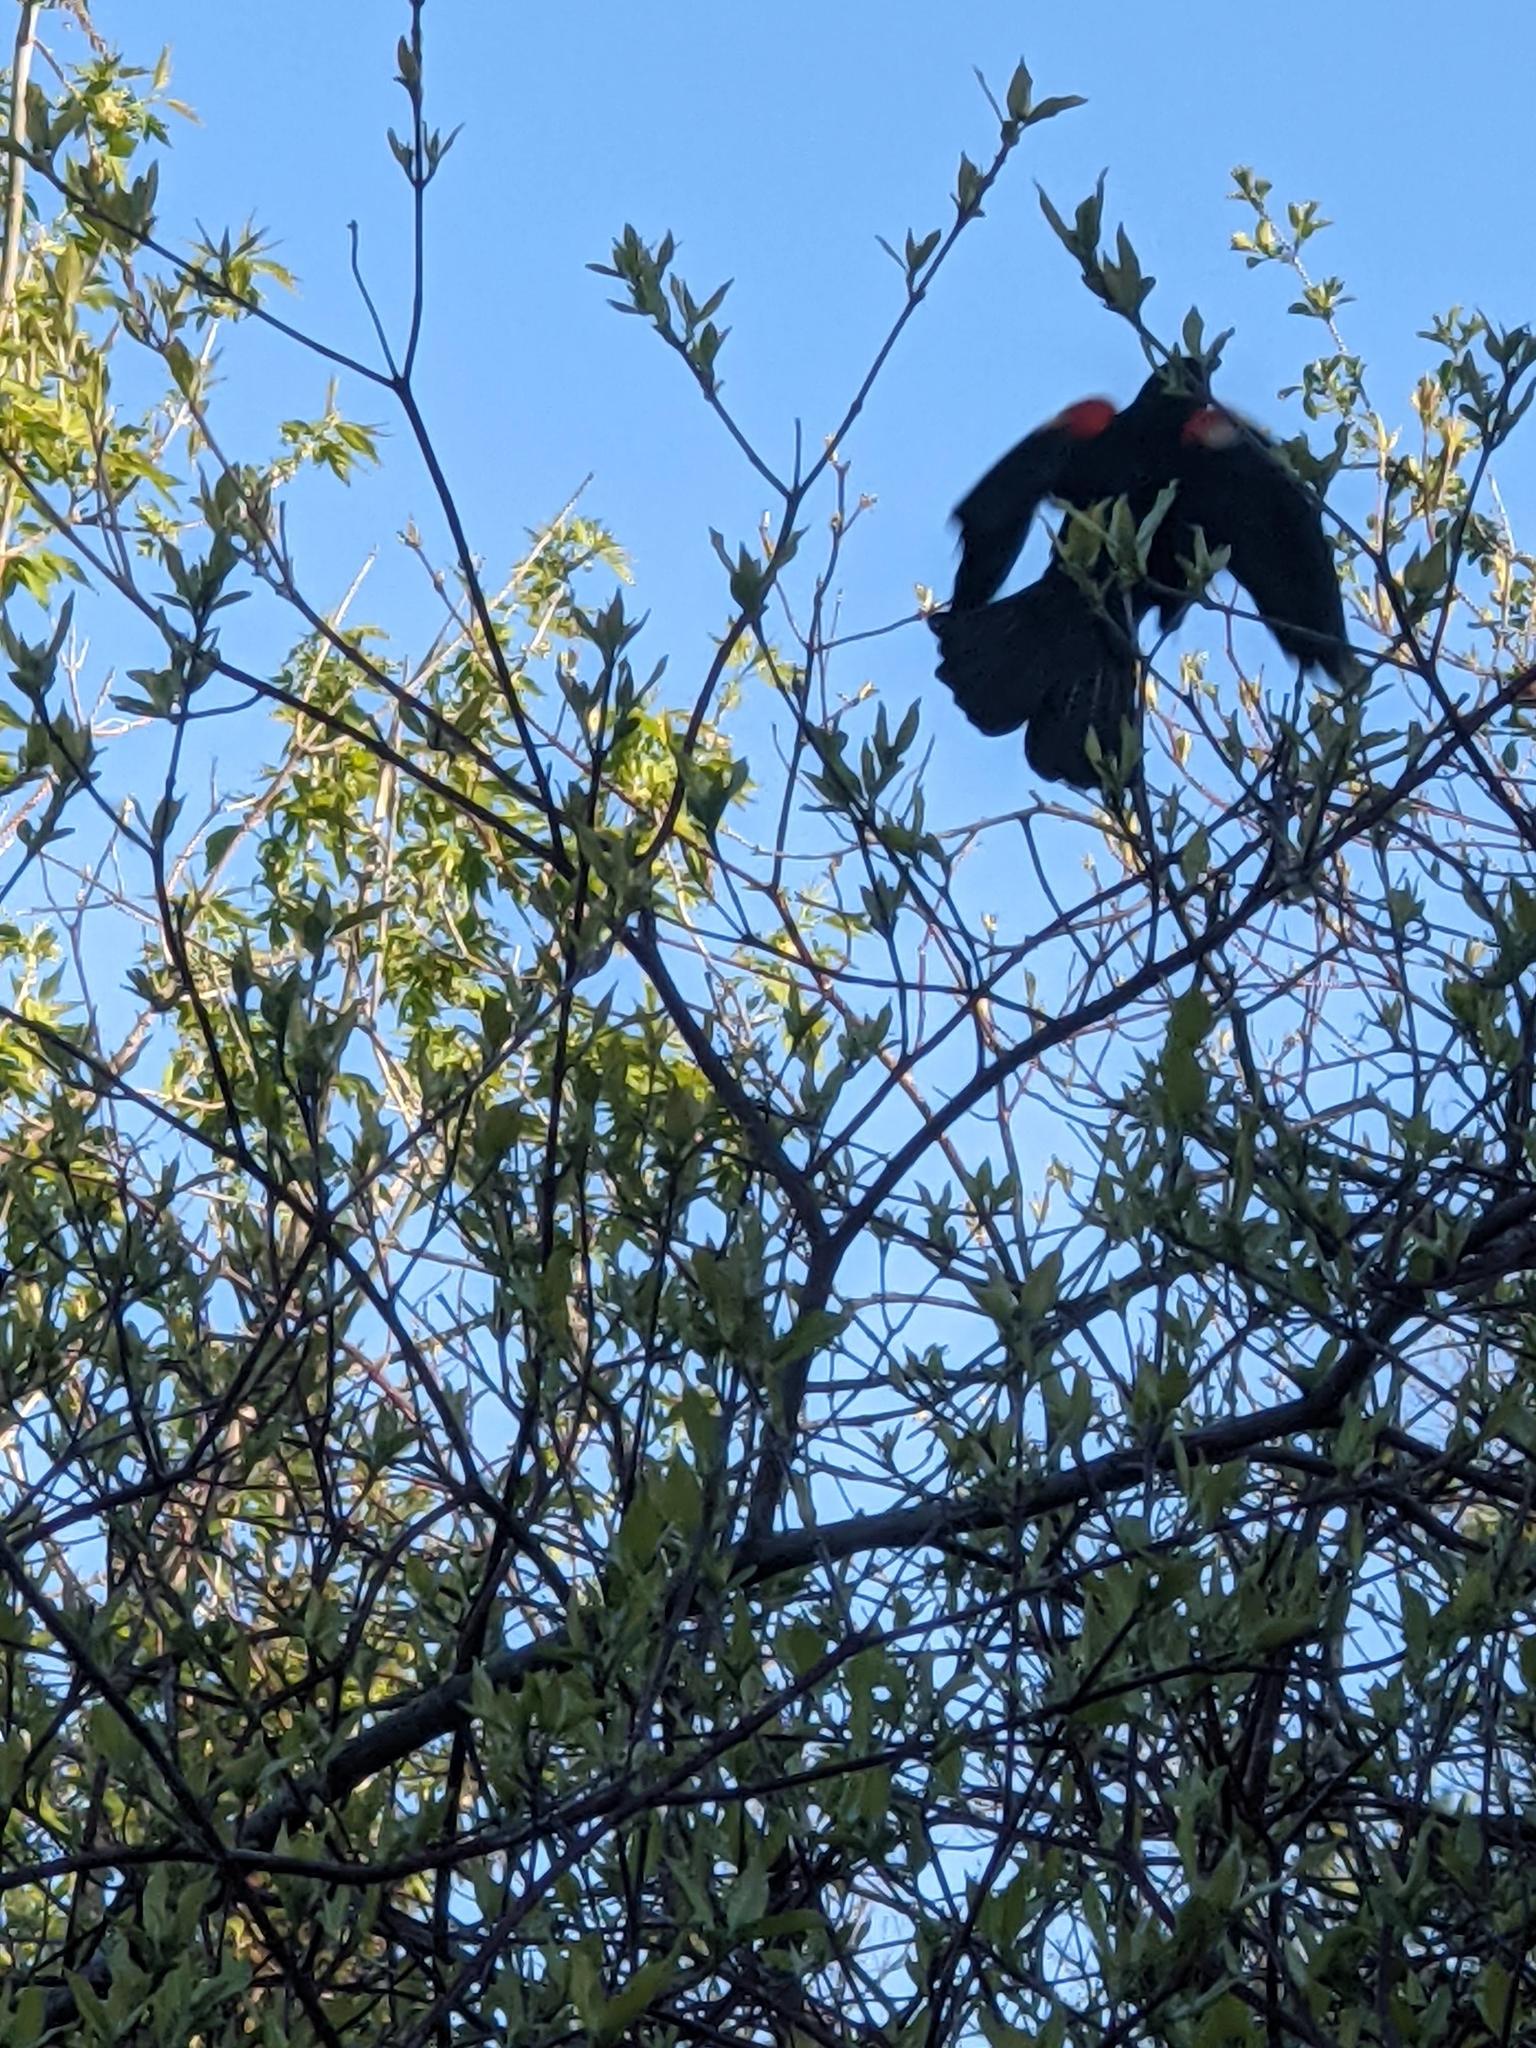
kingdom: Animalia
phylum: Chordata
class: Aves
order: Passeriformes
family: Icteridae
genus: Agelaius
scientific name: Agelaius phoeniceus
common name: Red-winged blackbird
